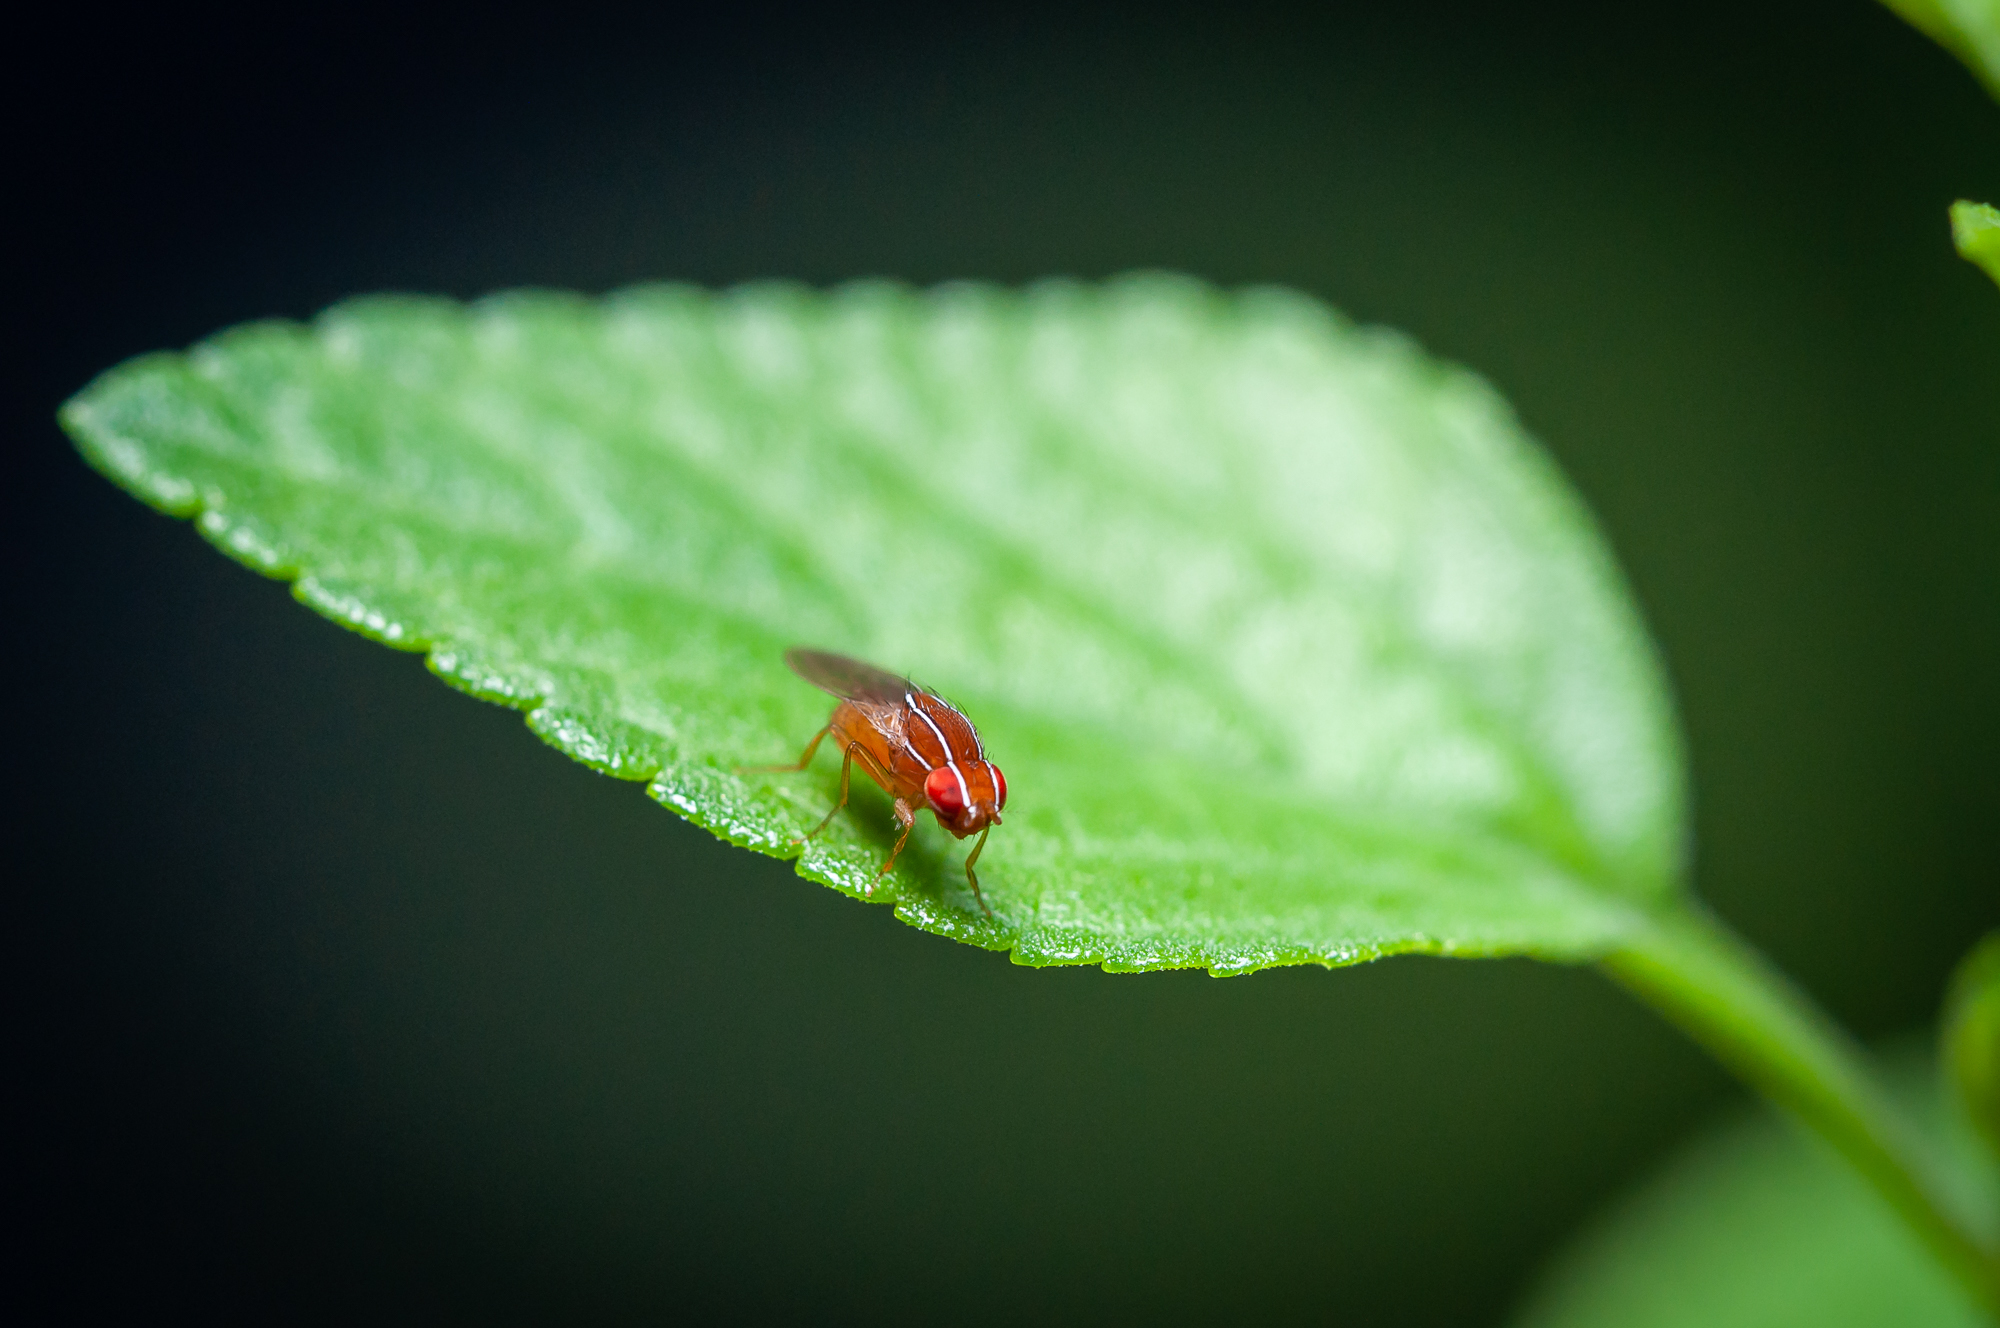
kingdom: Animalia
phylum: Arthropoda
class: Insecta
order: Diptera
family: Drosophilidae
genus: Zaprionus
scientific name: Zaprionus indianus
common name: African fig fly
